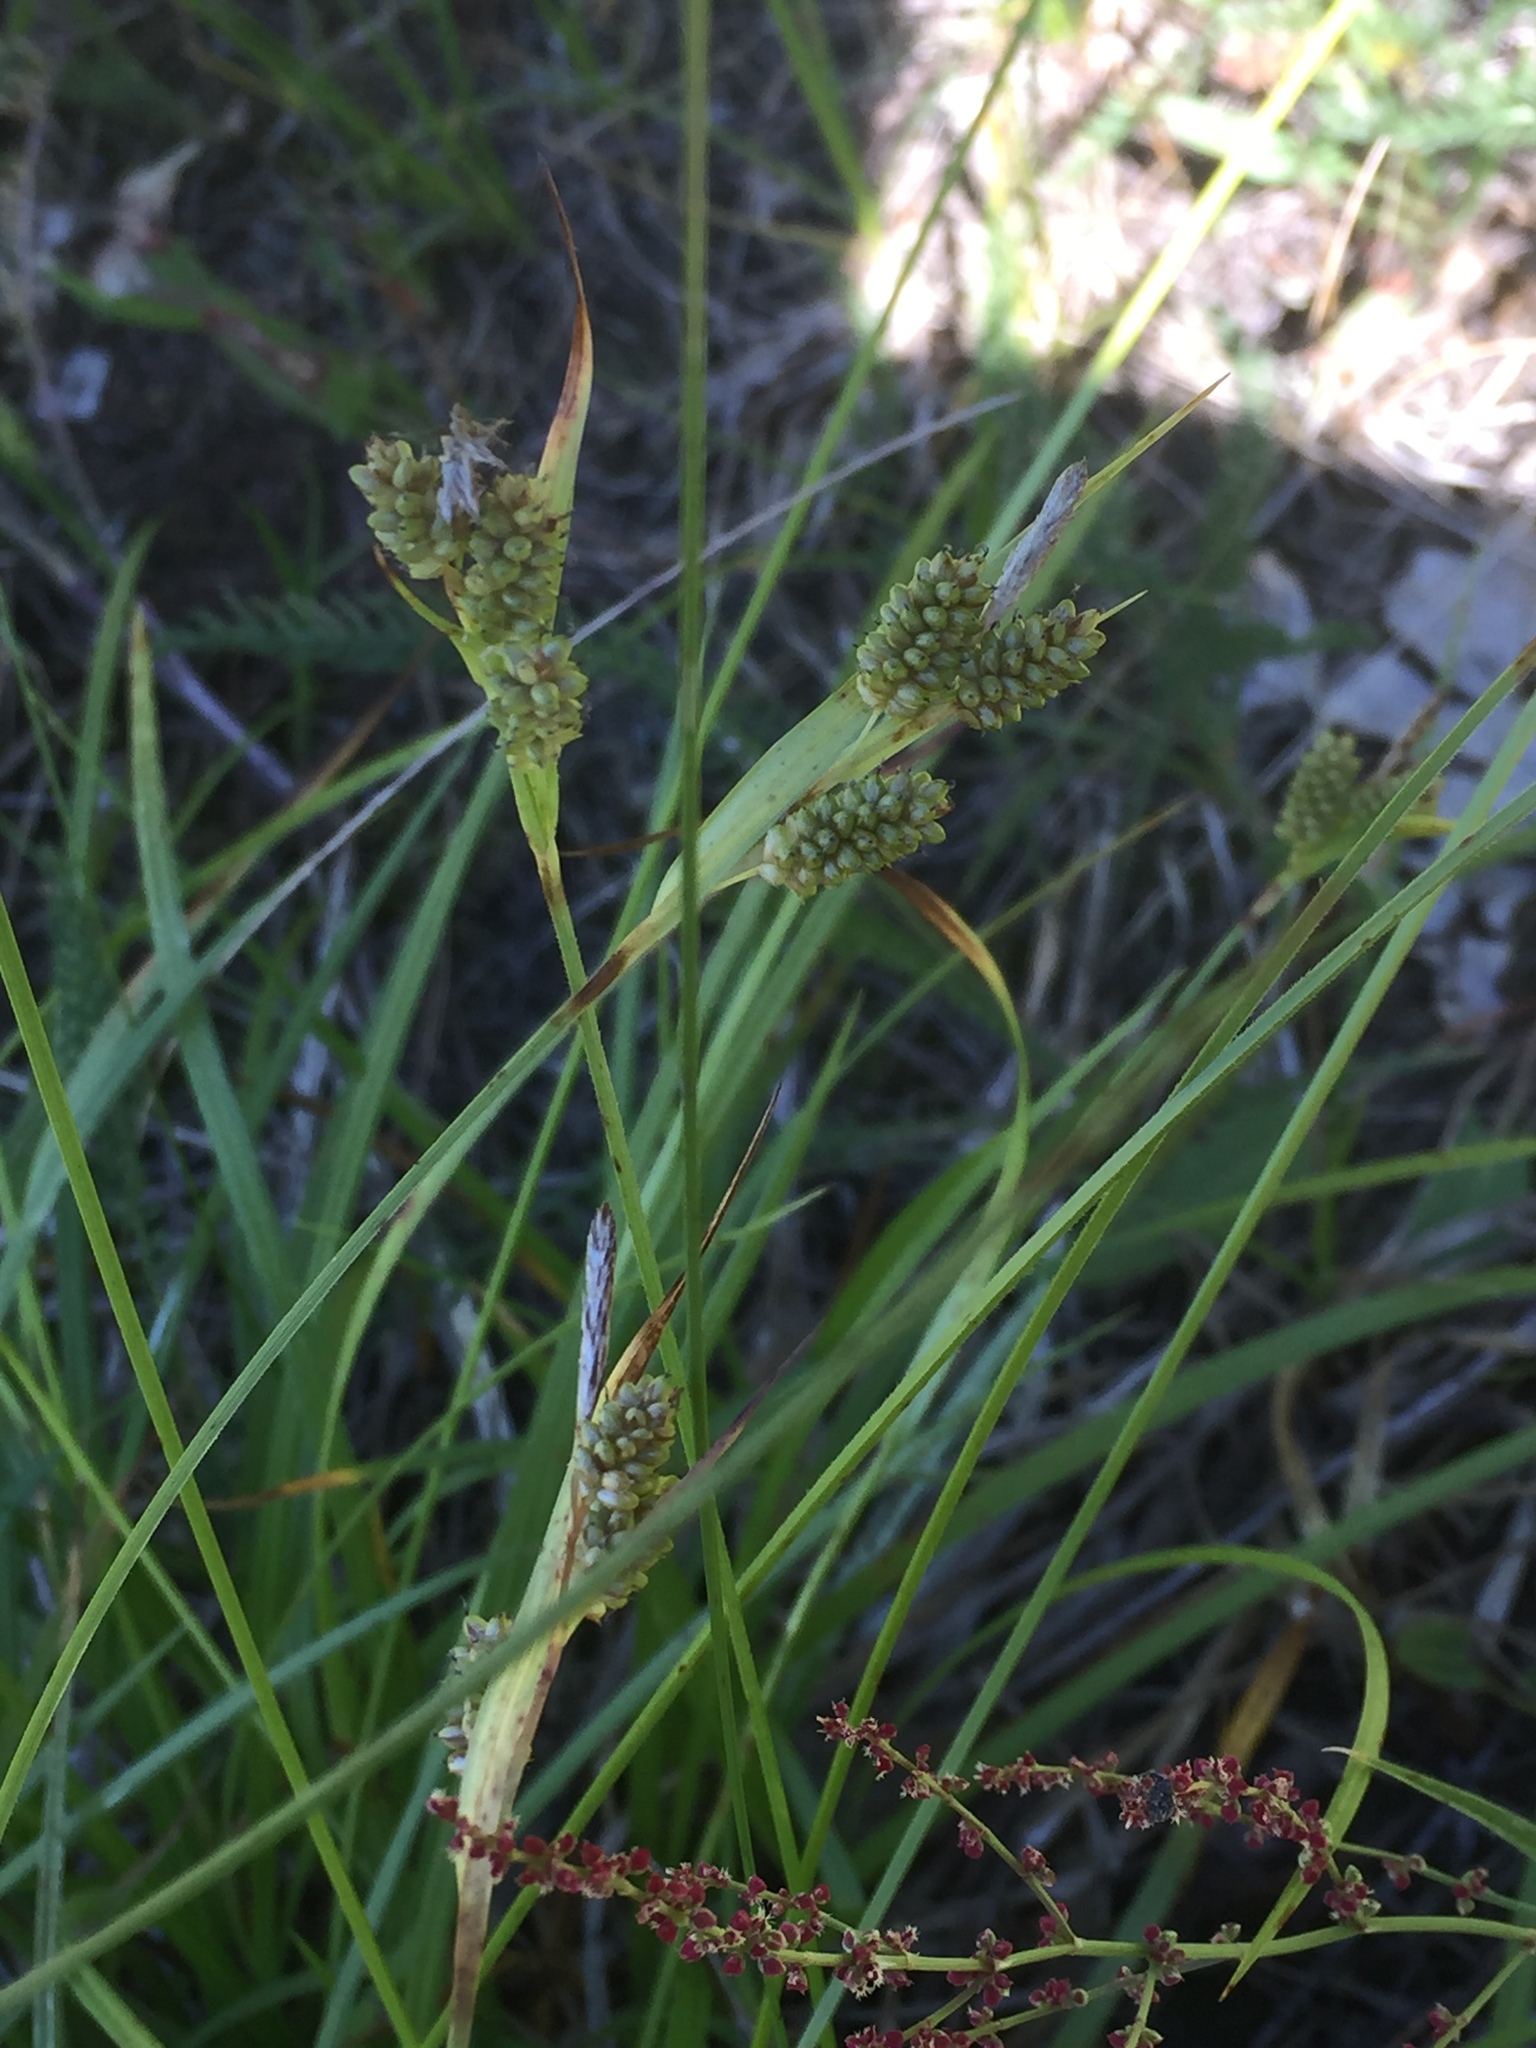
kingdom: Plantae
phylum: Tracheophyta
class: Liliopsida
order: Poales
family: Cyperaceae
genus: Carex
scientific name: Carex pallescens
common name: Pale sedge
